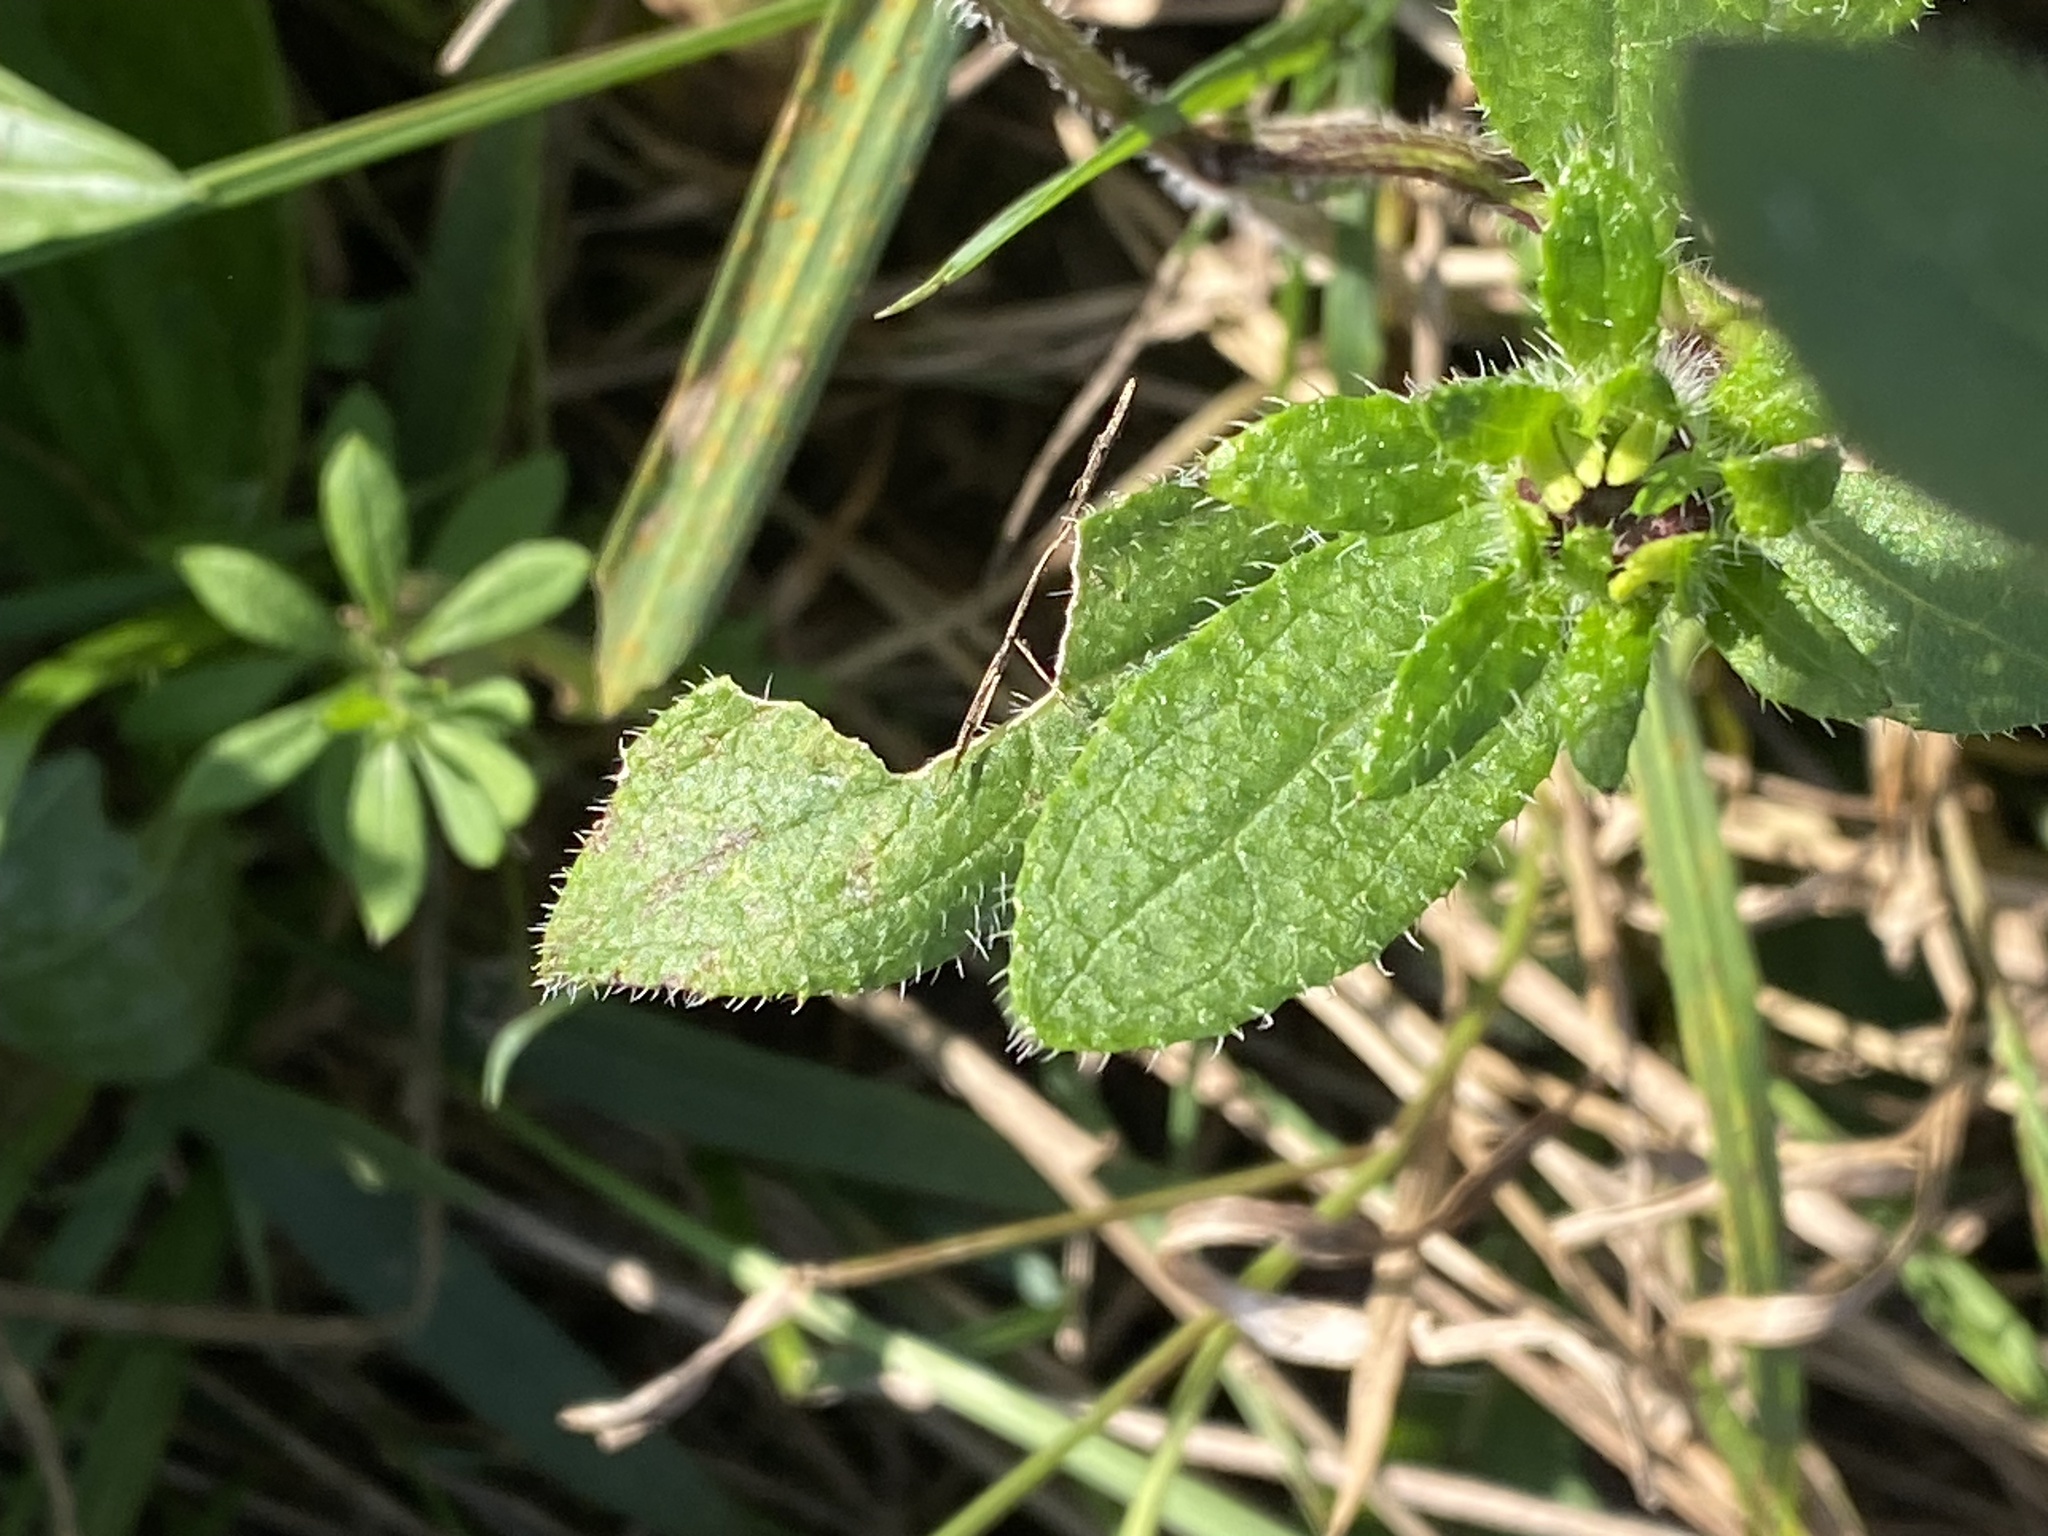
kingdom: Plantae
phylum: Tracheophyta
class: Magnoliopsida
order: Asterales
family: Asteraceae
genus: Rudbeckia
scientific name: Rudbeckia hirta
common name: Black-eyed-susan
